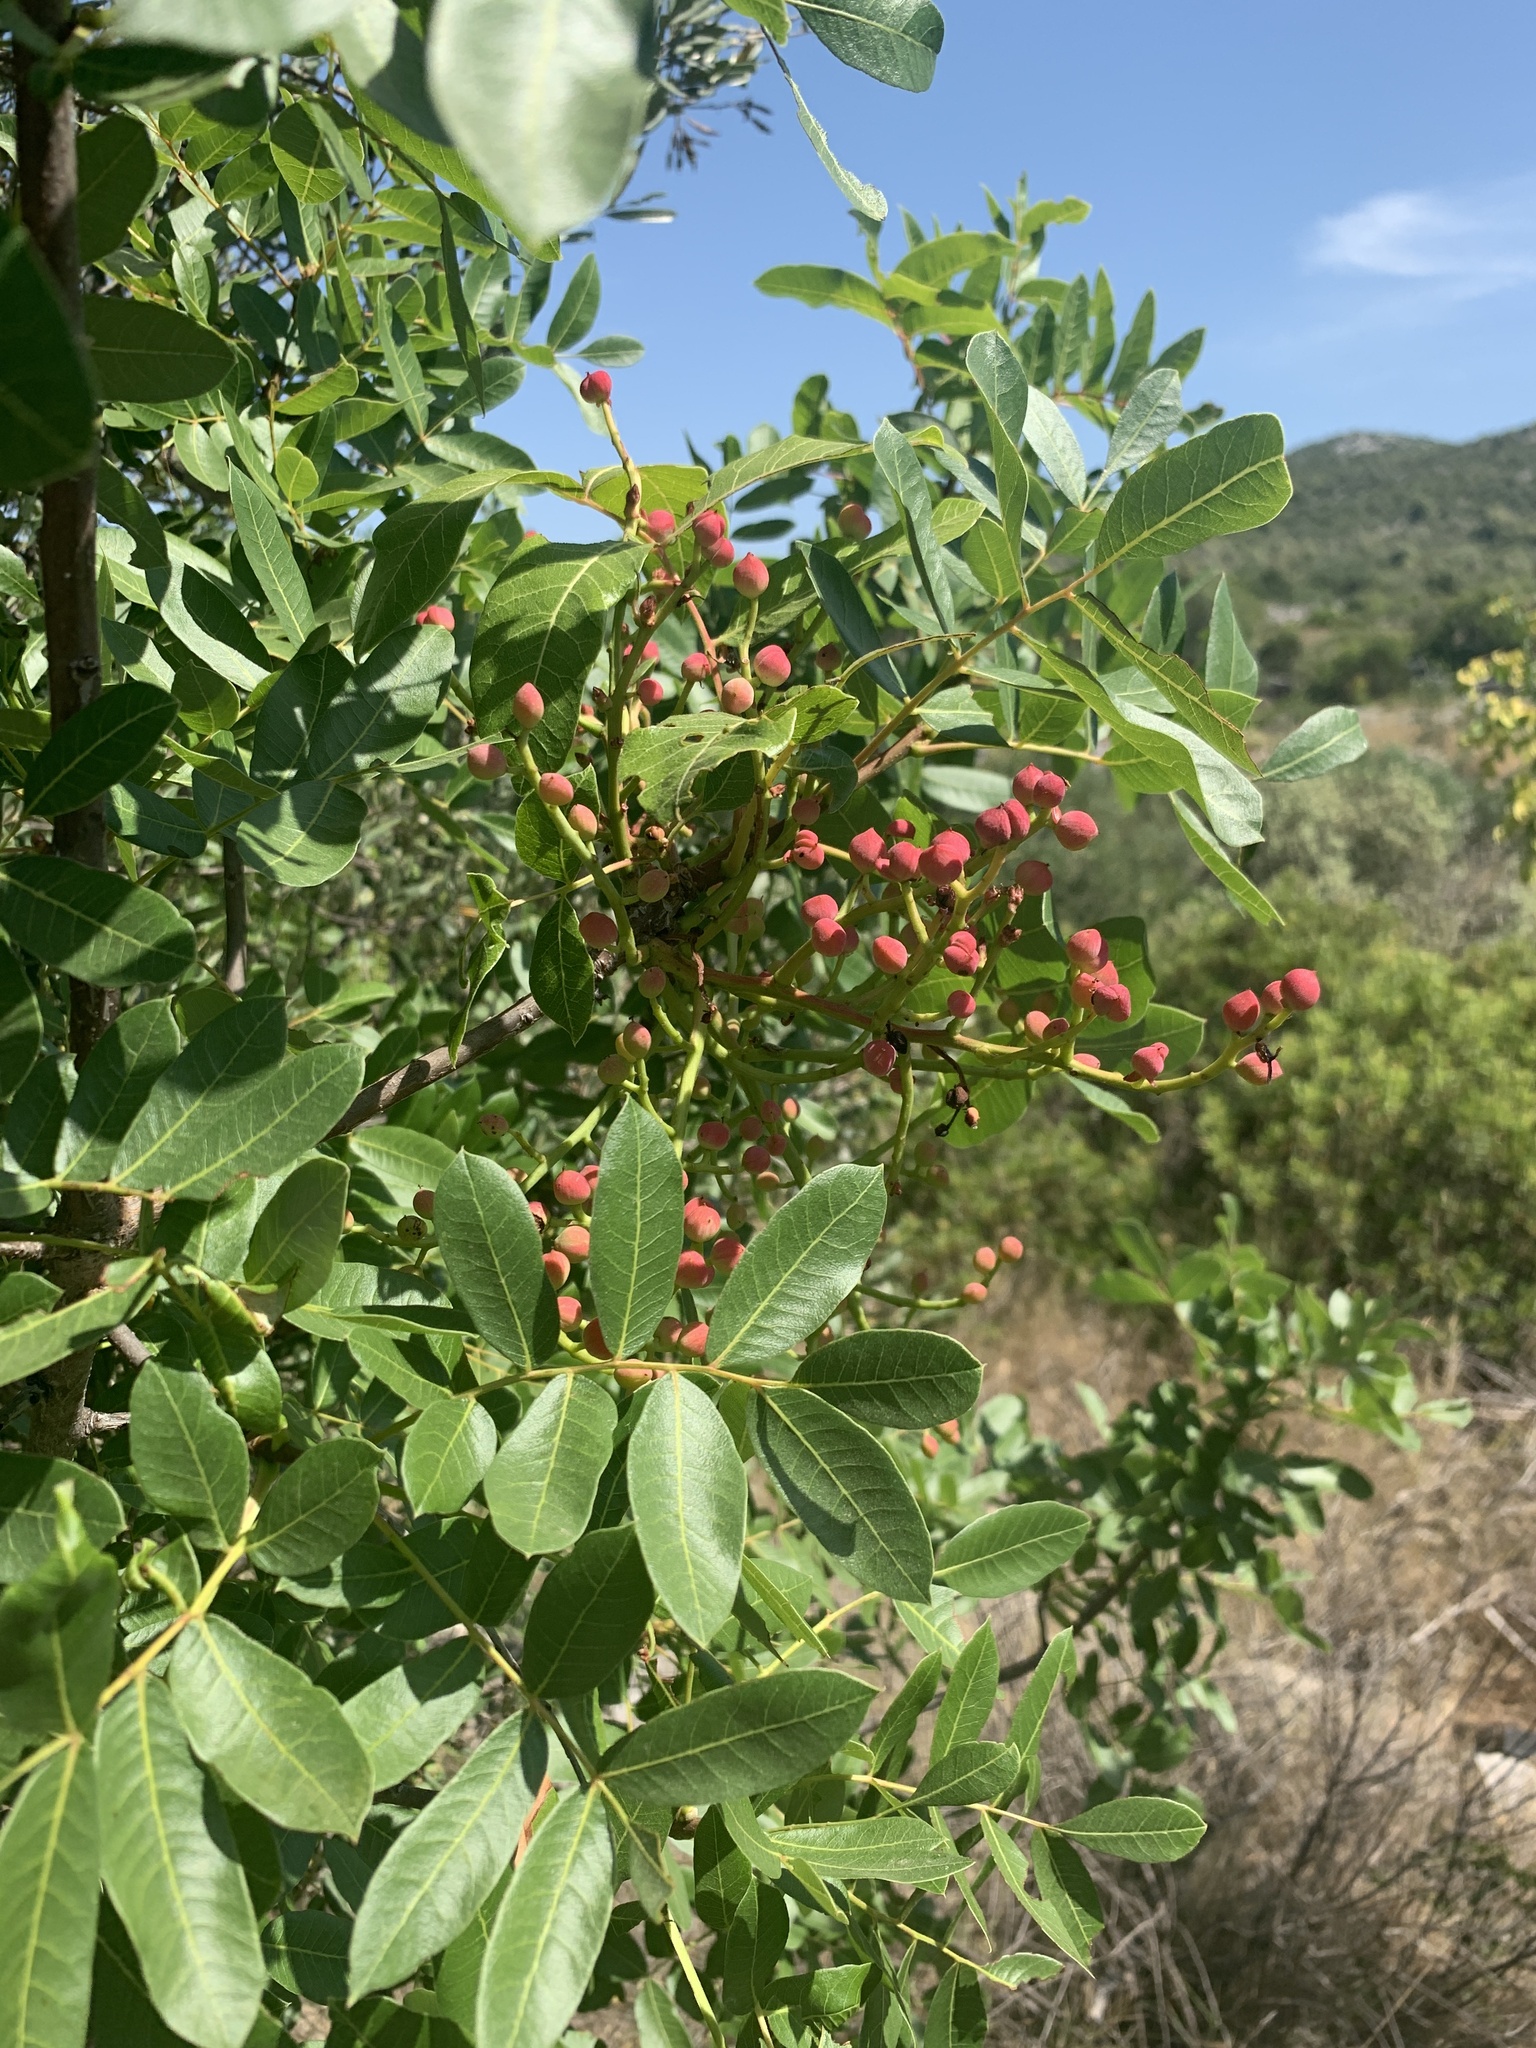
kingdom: Plantae
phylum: Tracheophyta
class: Magnoliopsida
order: Sapindales
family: Anacardiaceae
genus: Pistacia
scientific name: Pistacia terebinthus
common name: Terebinth
